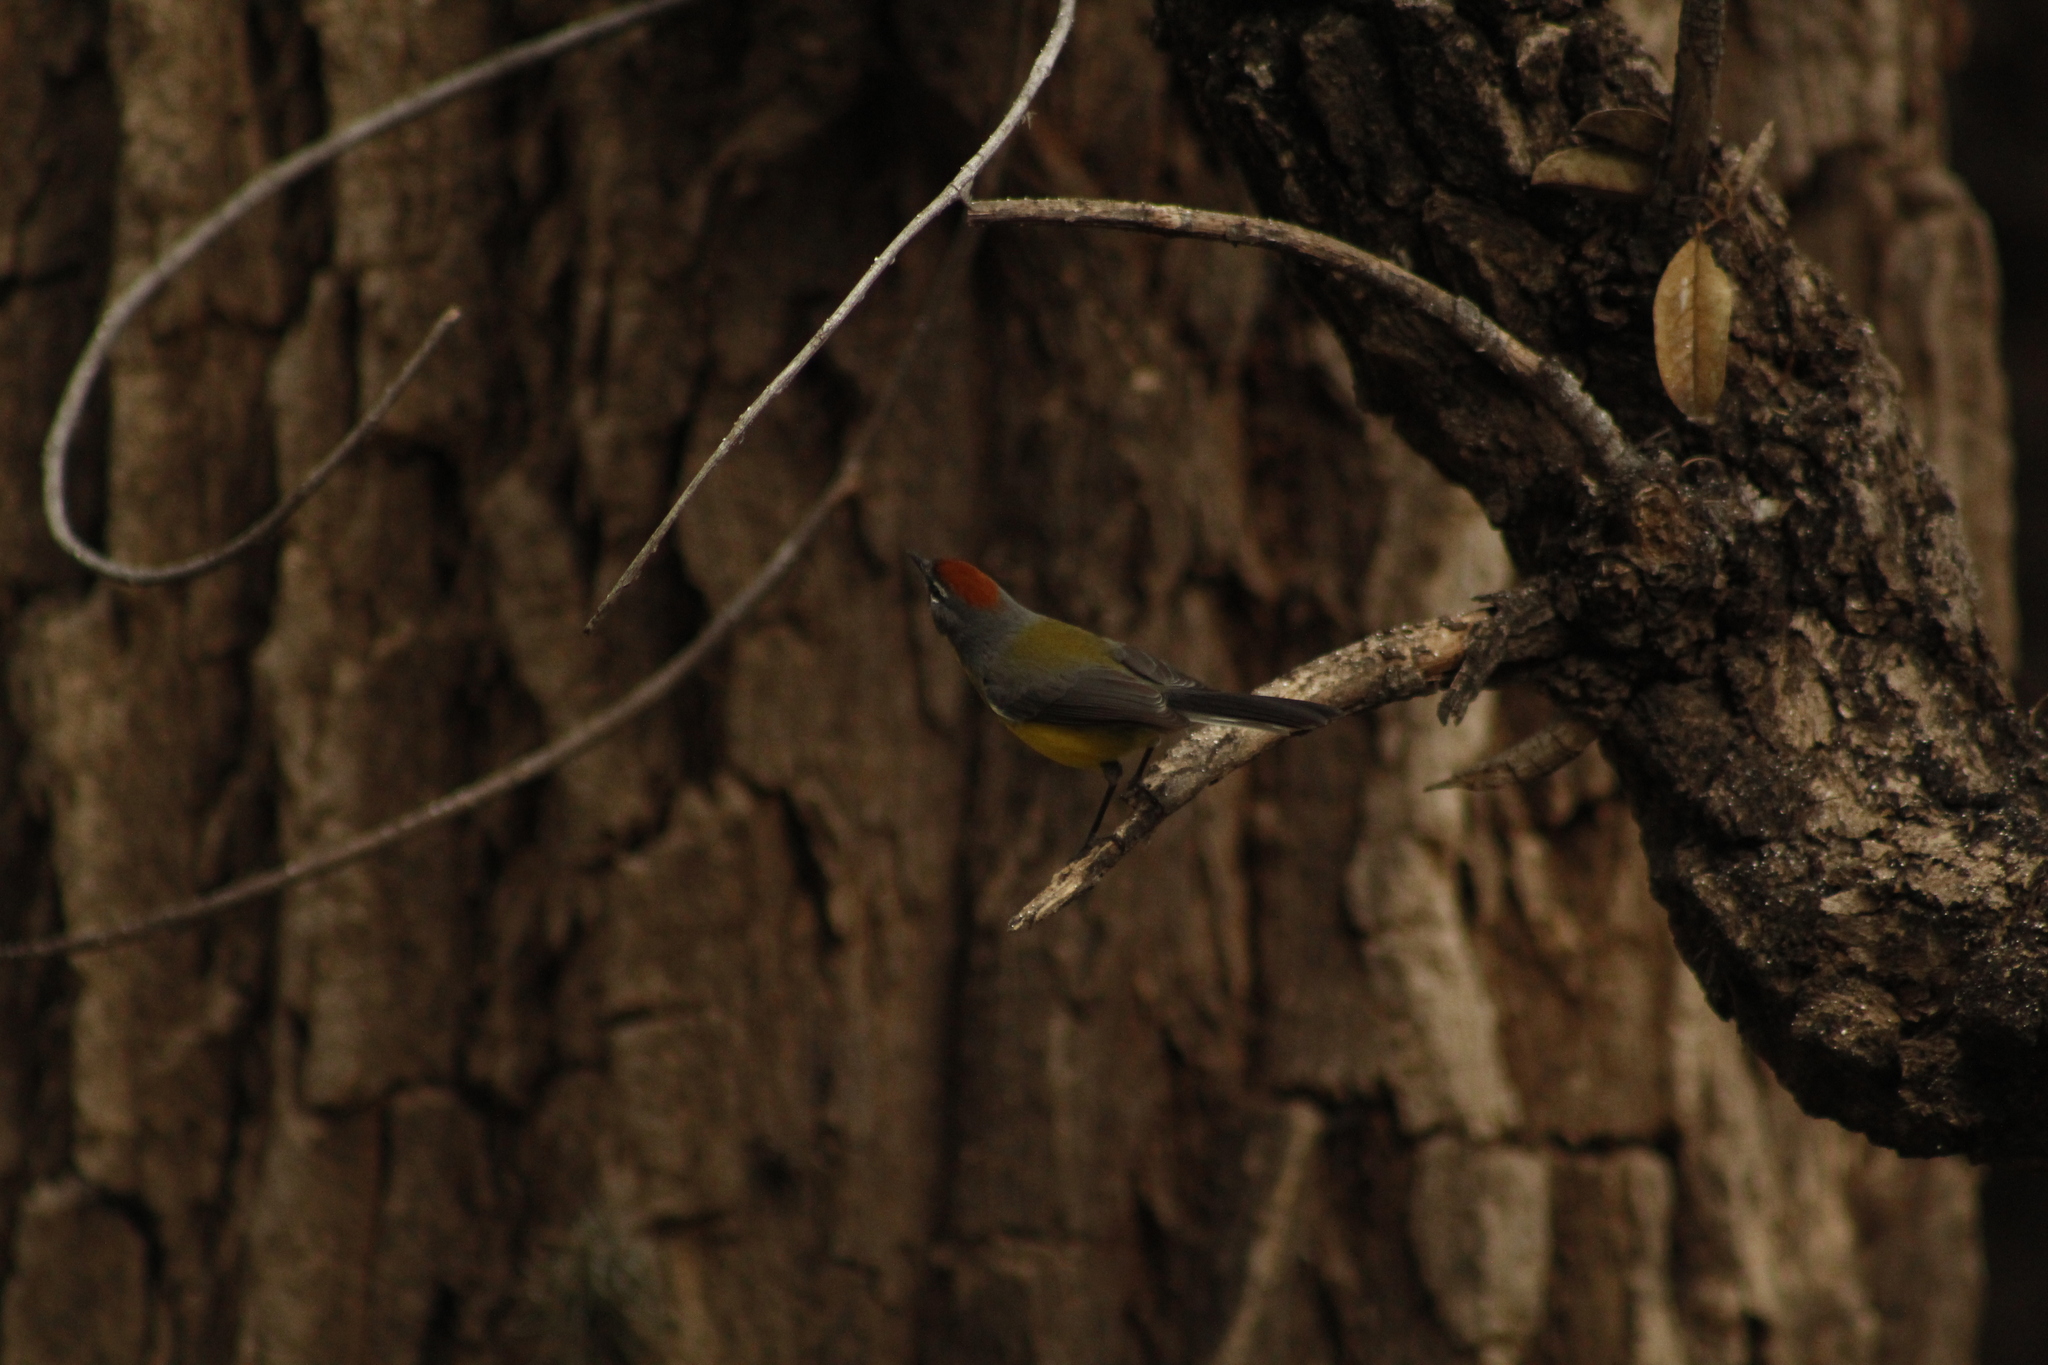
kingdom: Animalia
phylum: Chordata
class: Aves
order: Passeriformes
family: Parulidae
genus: Myioborus
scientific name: Myioborus brunniceps
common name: Brown-capped whitestart
